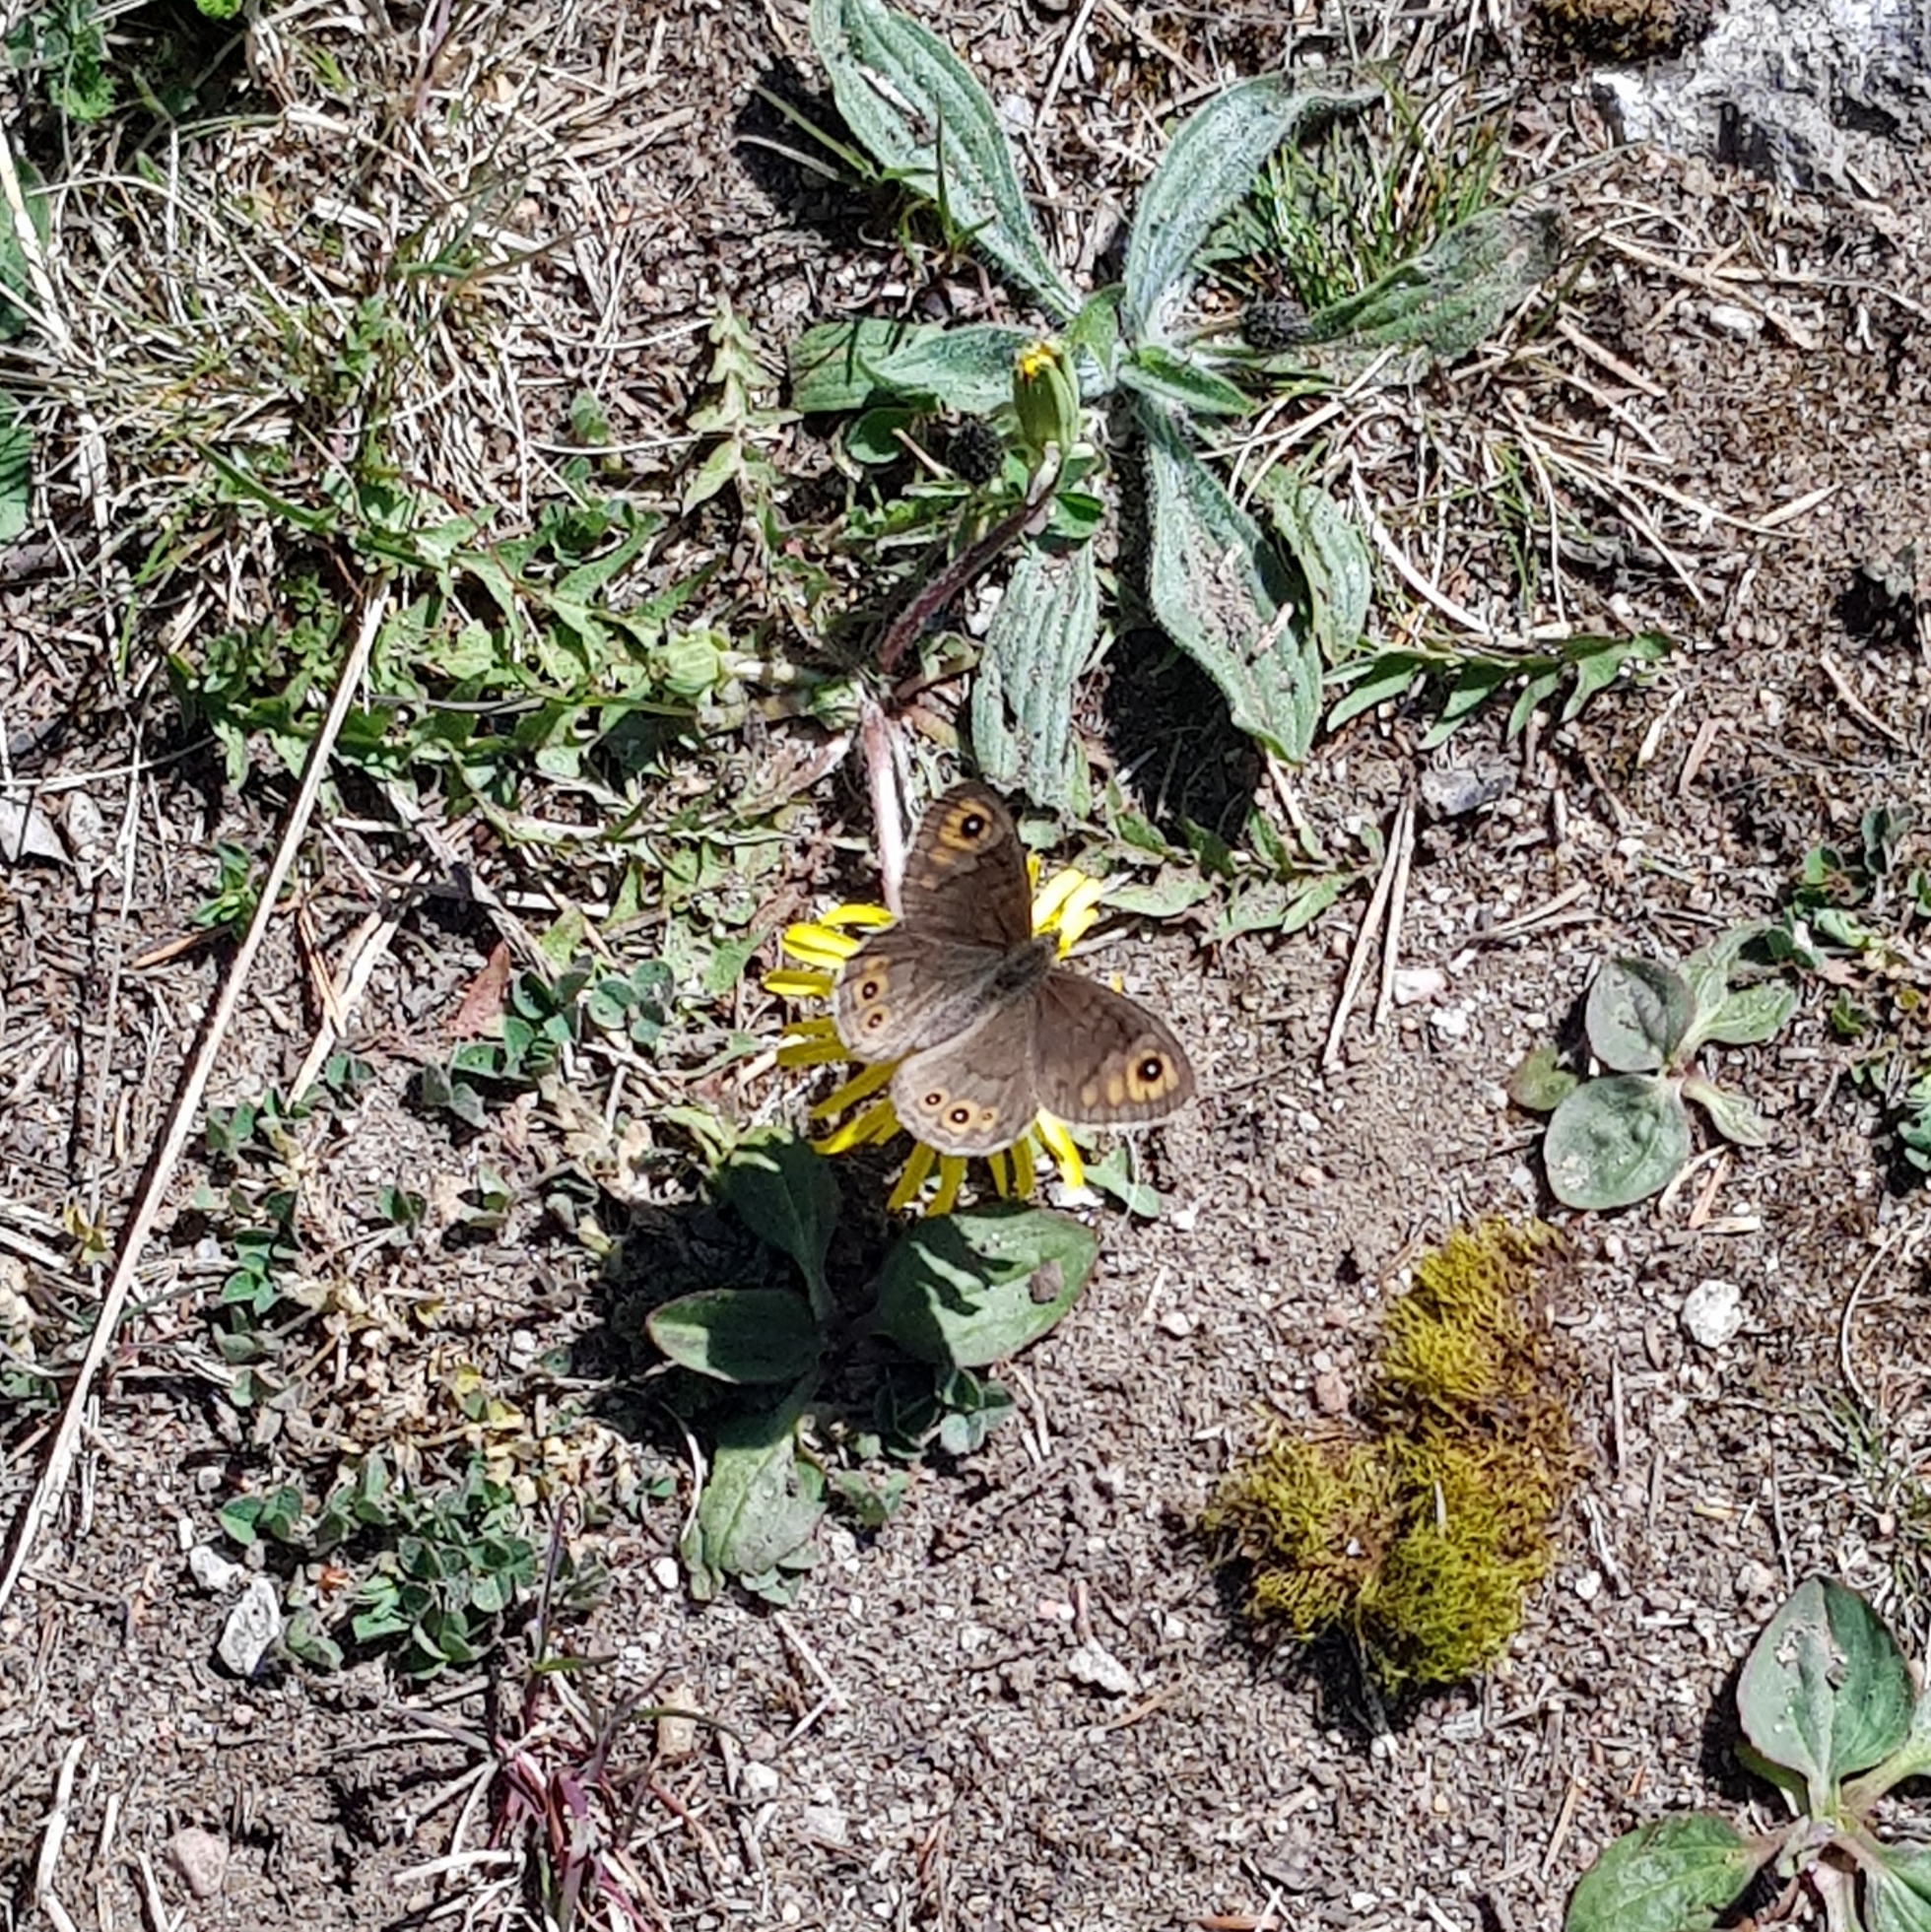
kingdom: Animalia
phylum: Arthropoda
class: Insecta
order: Lepidoptera
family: Nymphalidae
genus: Pararge
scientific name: Pararge petropolitana
